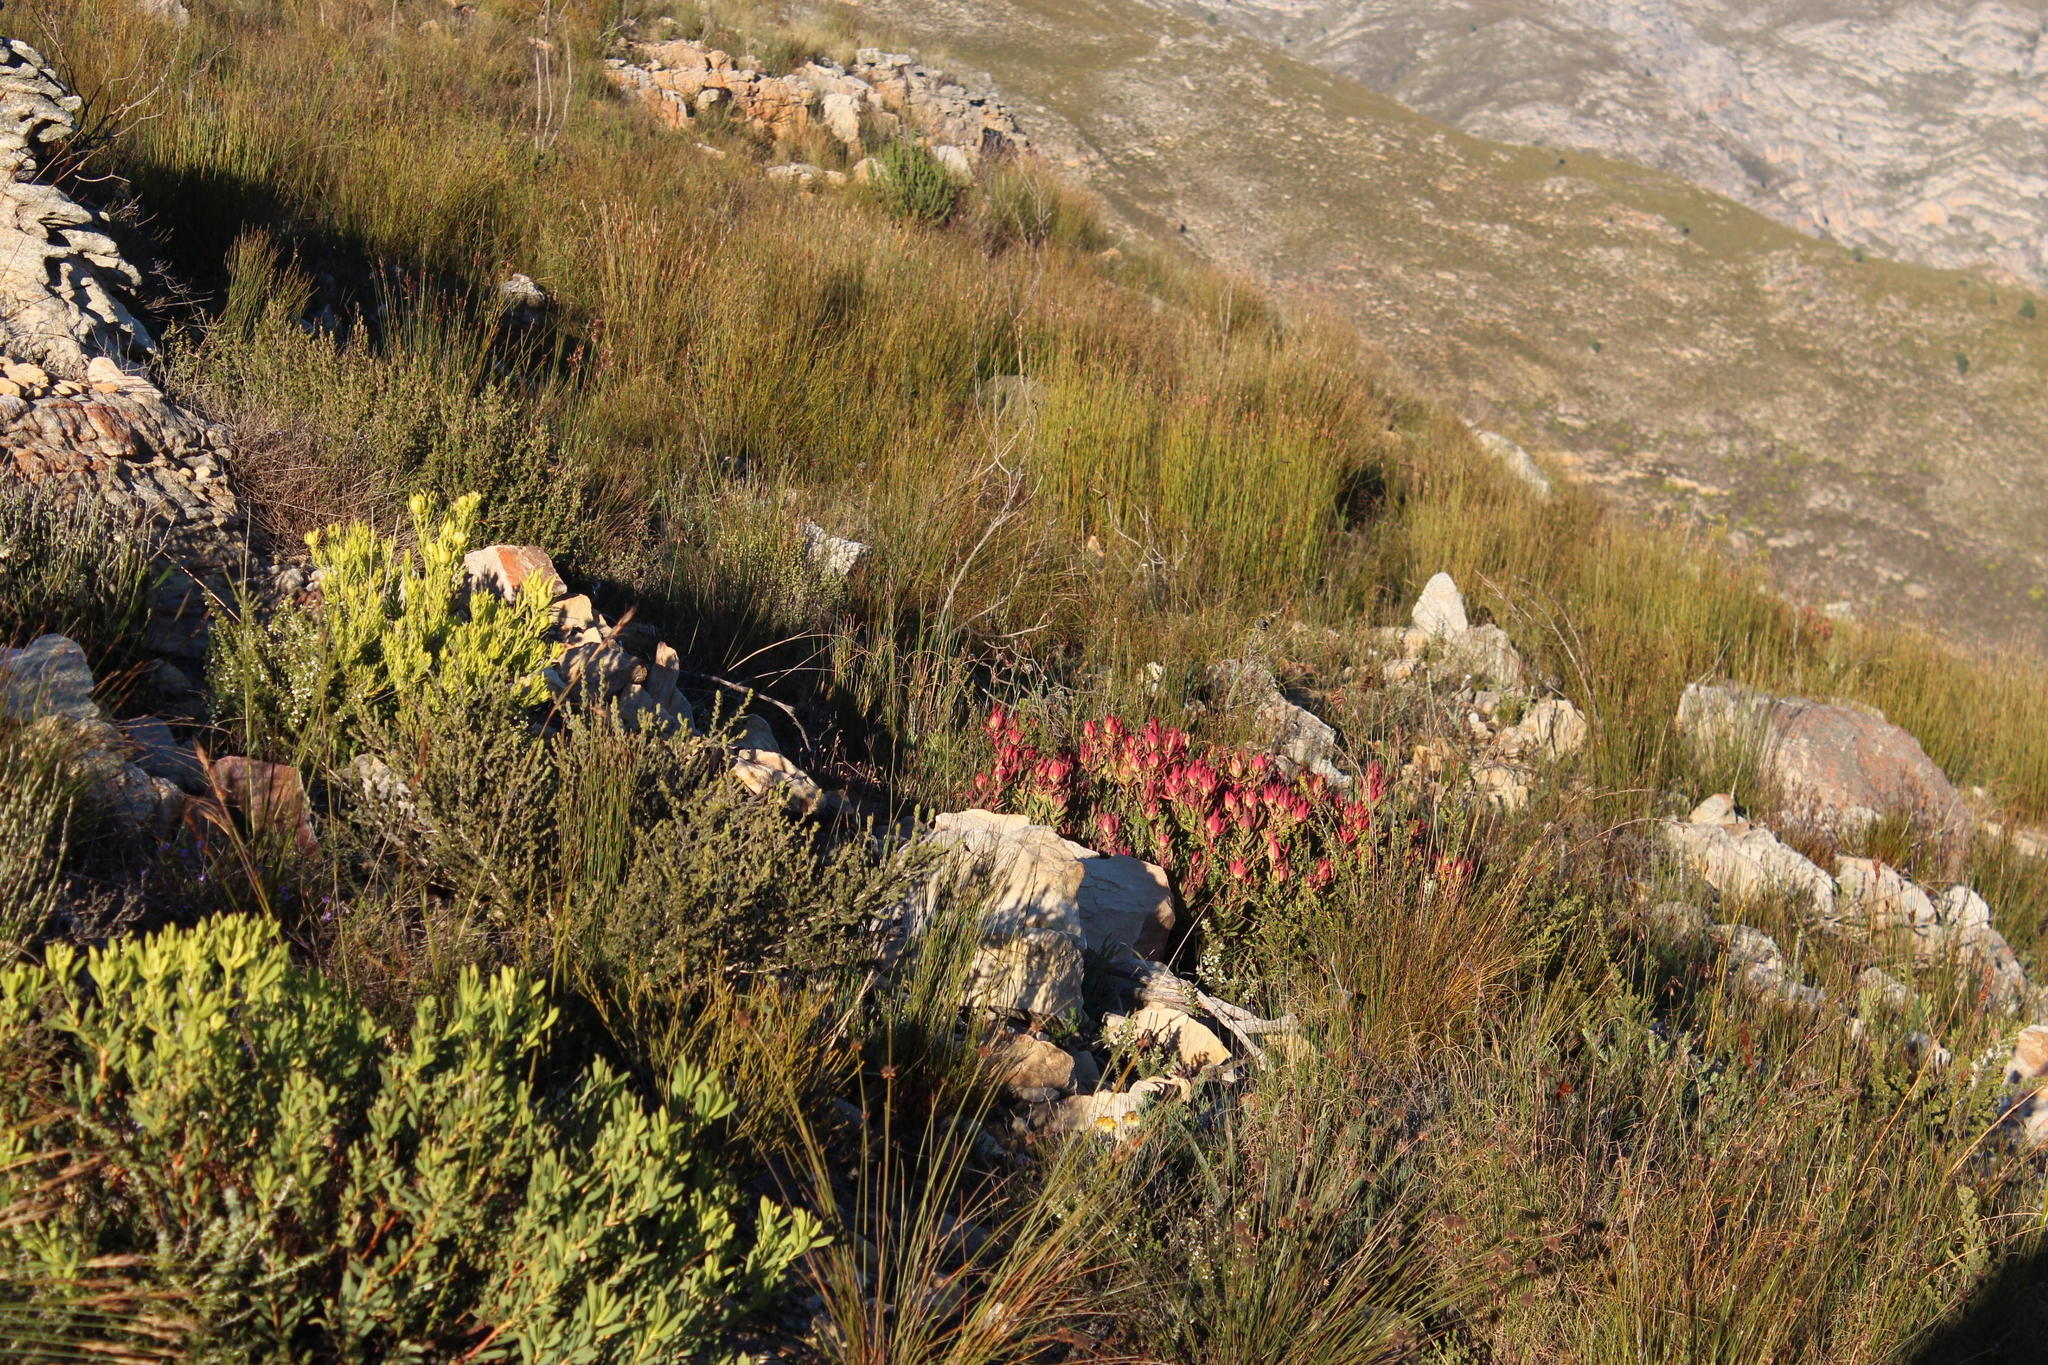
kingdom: Plantae
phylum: Tracheophyta
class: Magnoliopsida
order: Proteales
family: Proteaceae
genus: Leucadendron
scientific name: Leucadendron salignum
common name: Common sunshine conebush
